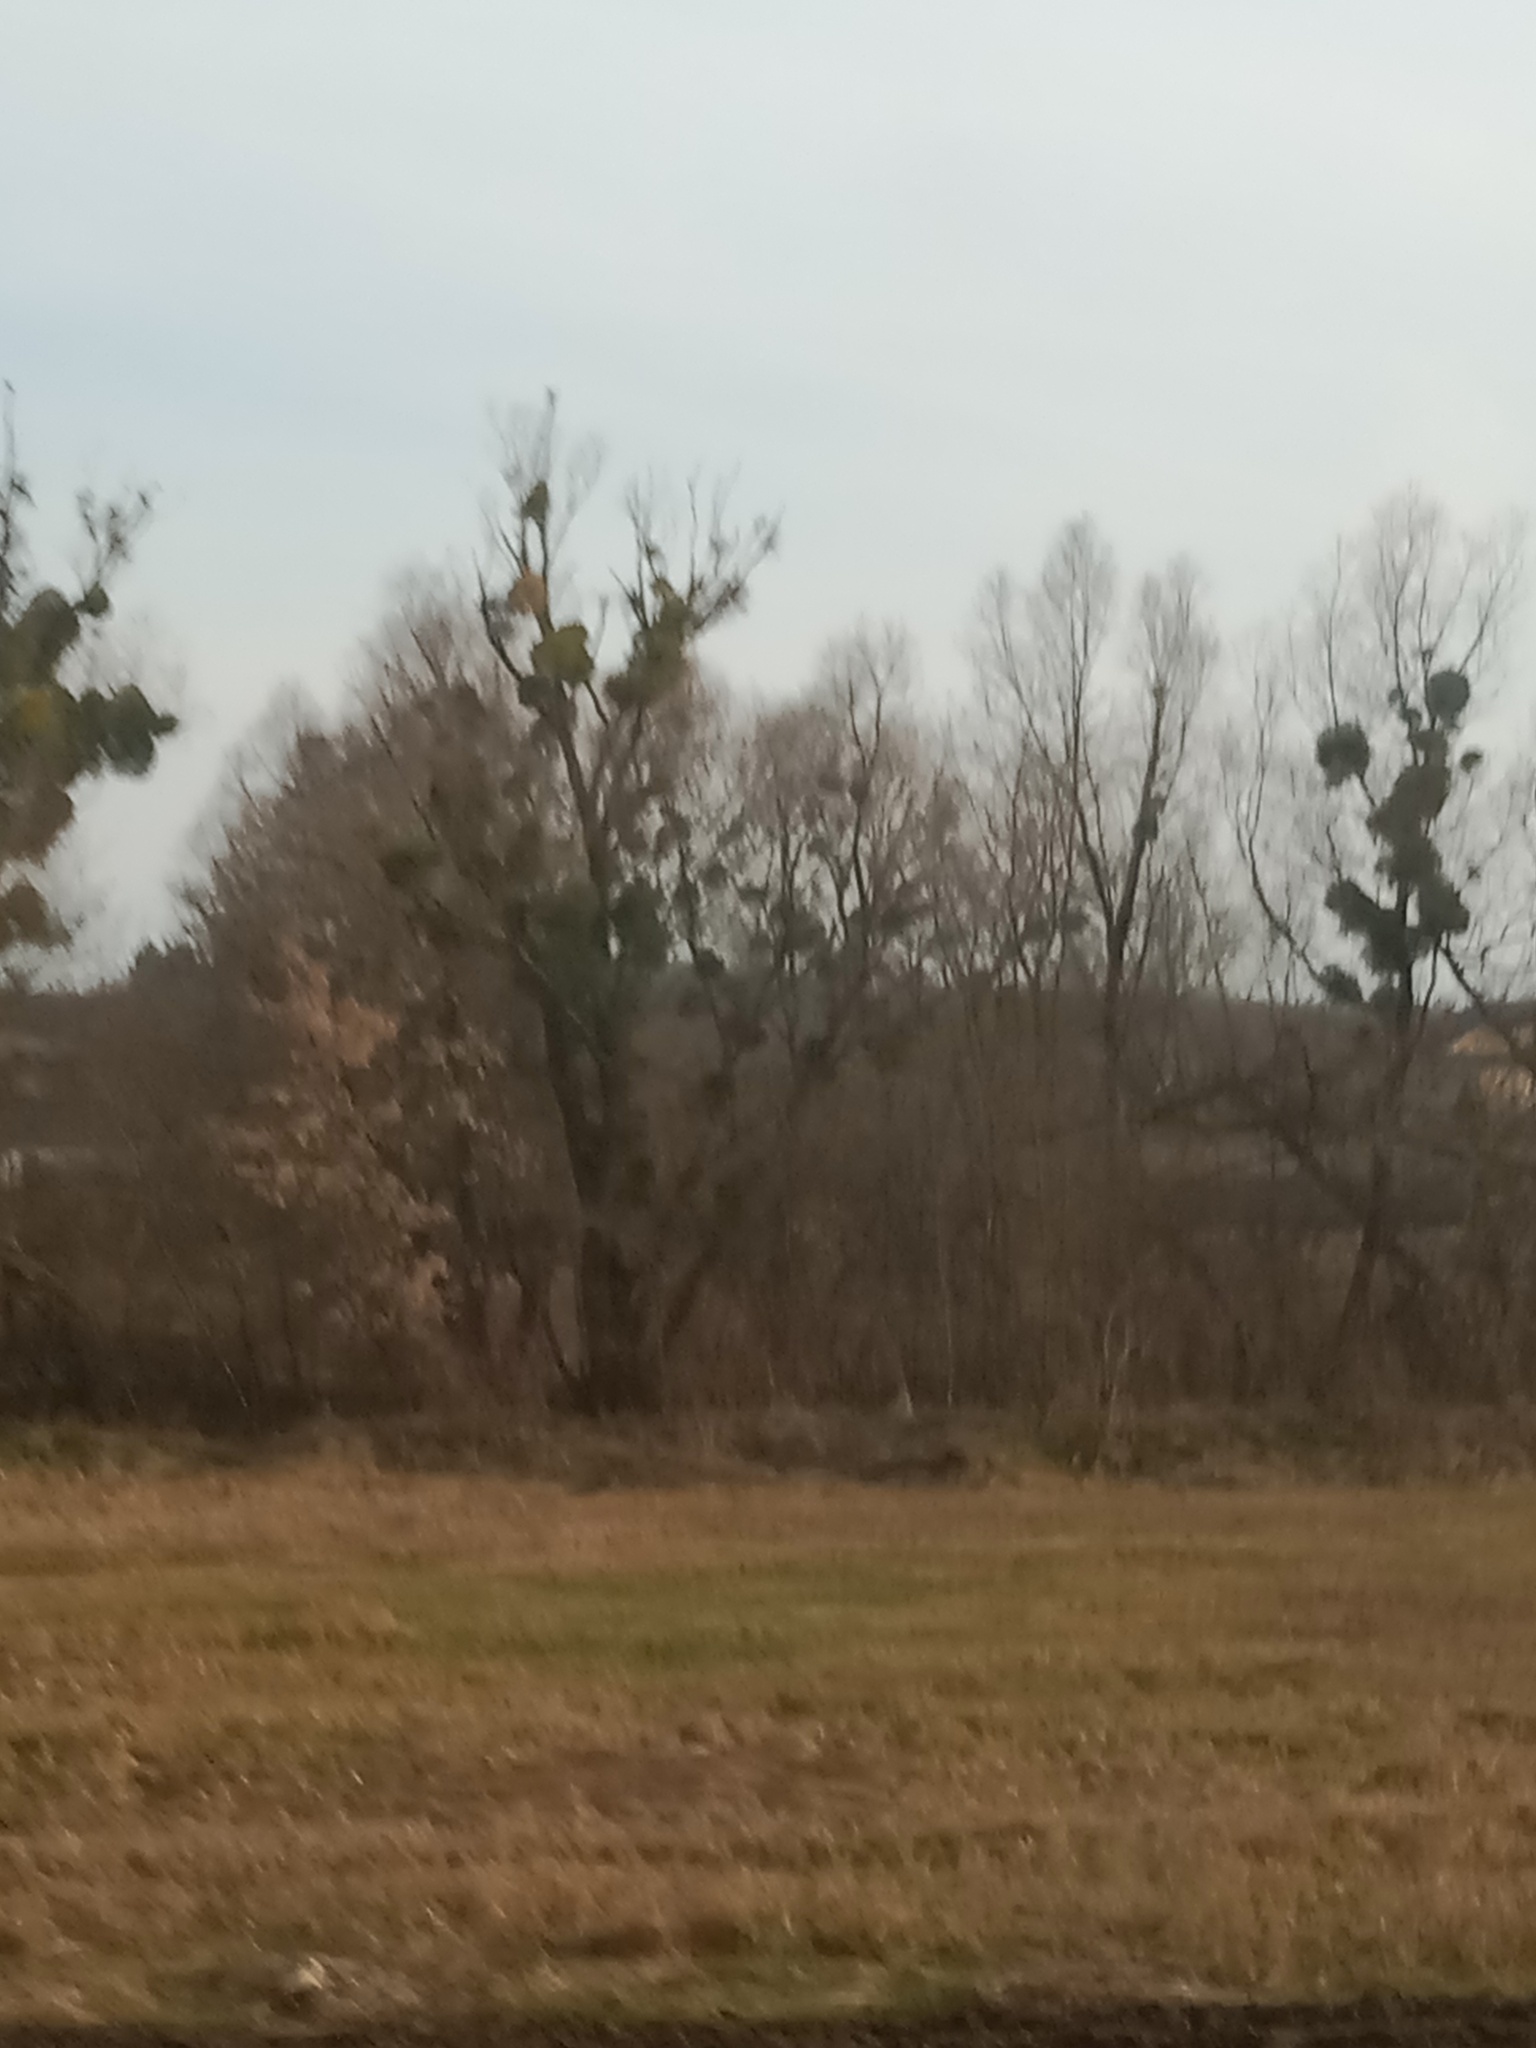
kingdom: Plantae
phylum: Tracheophyta
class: Magnoliopsida
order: Santalales
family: Viscaceae
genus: Viscum
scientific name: Viscum album
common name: Mistletoe
